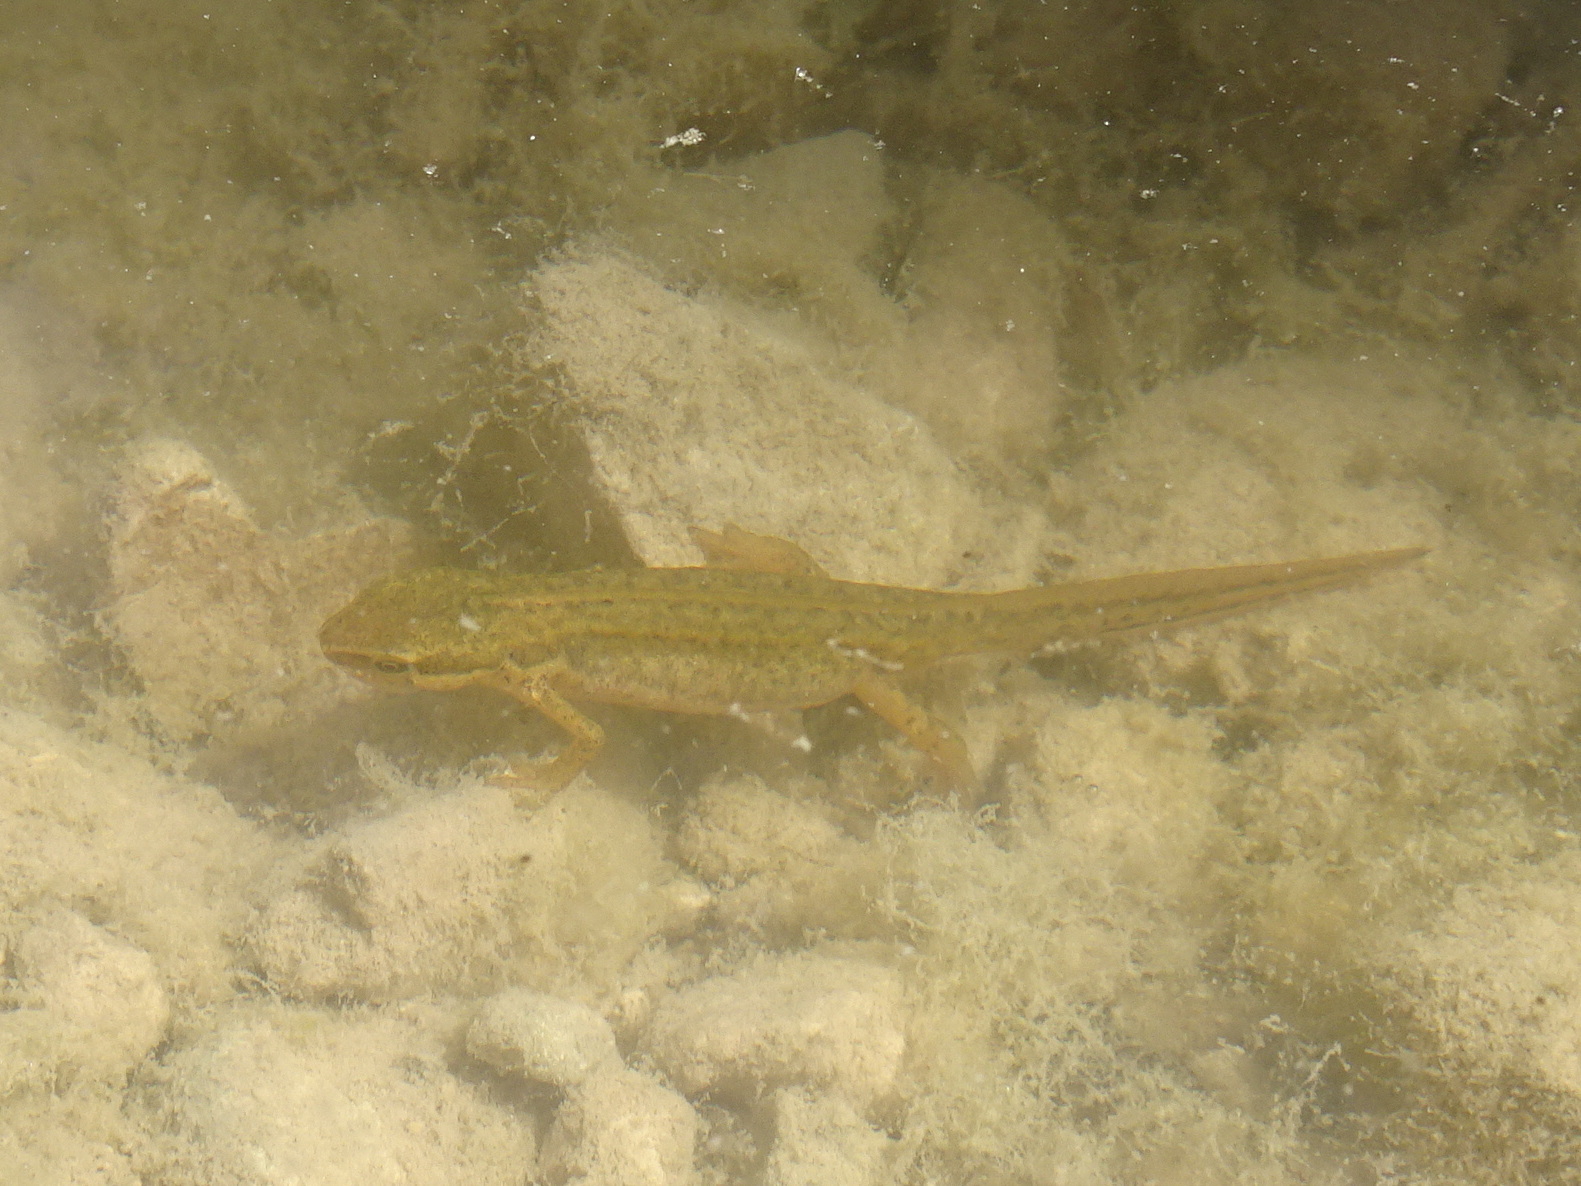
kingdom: Animalia
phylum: Chordata
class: Amphibia
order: Caudata
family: Salamandridae
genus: Lissotriton
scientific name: Lissotriton helveticus
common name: Palmate newt
